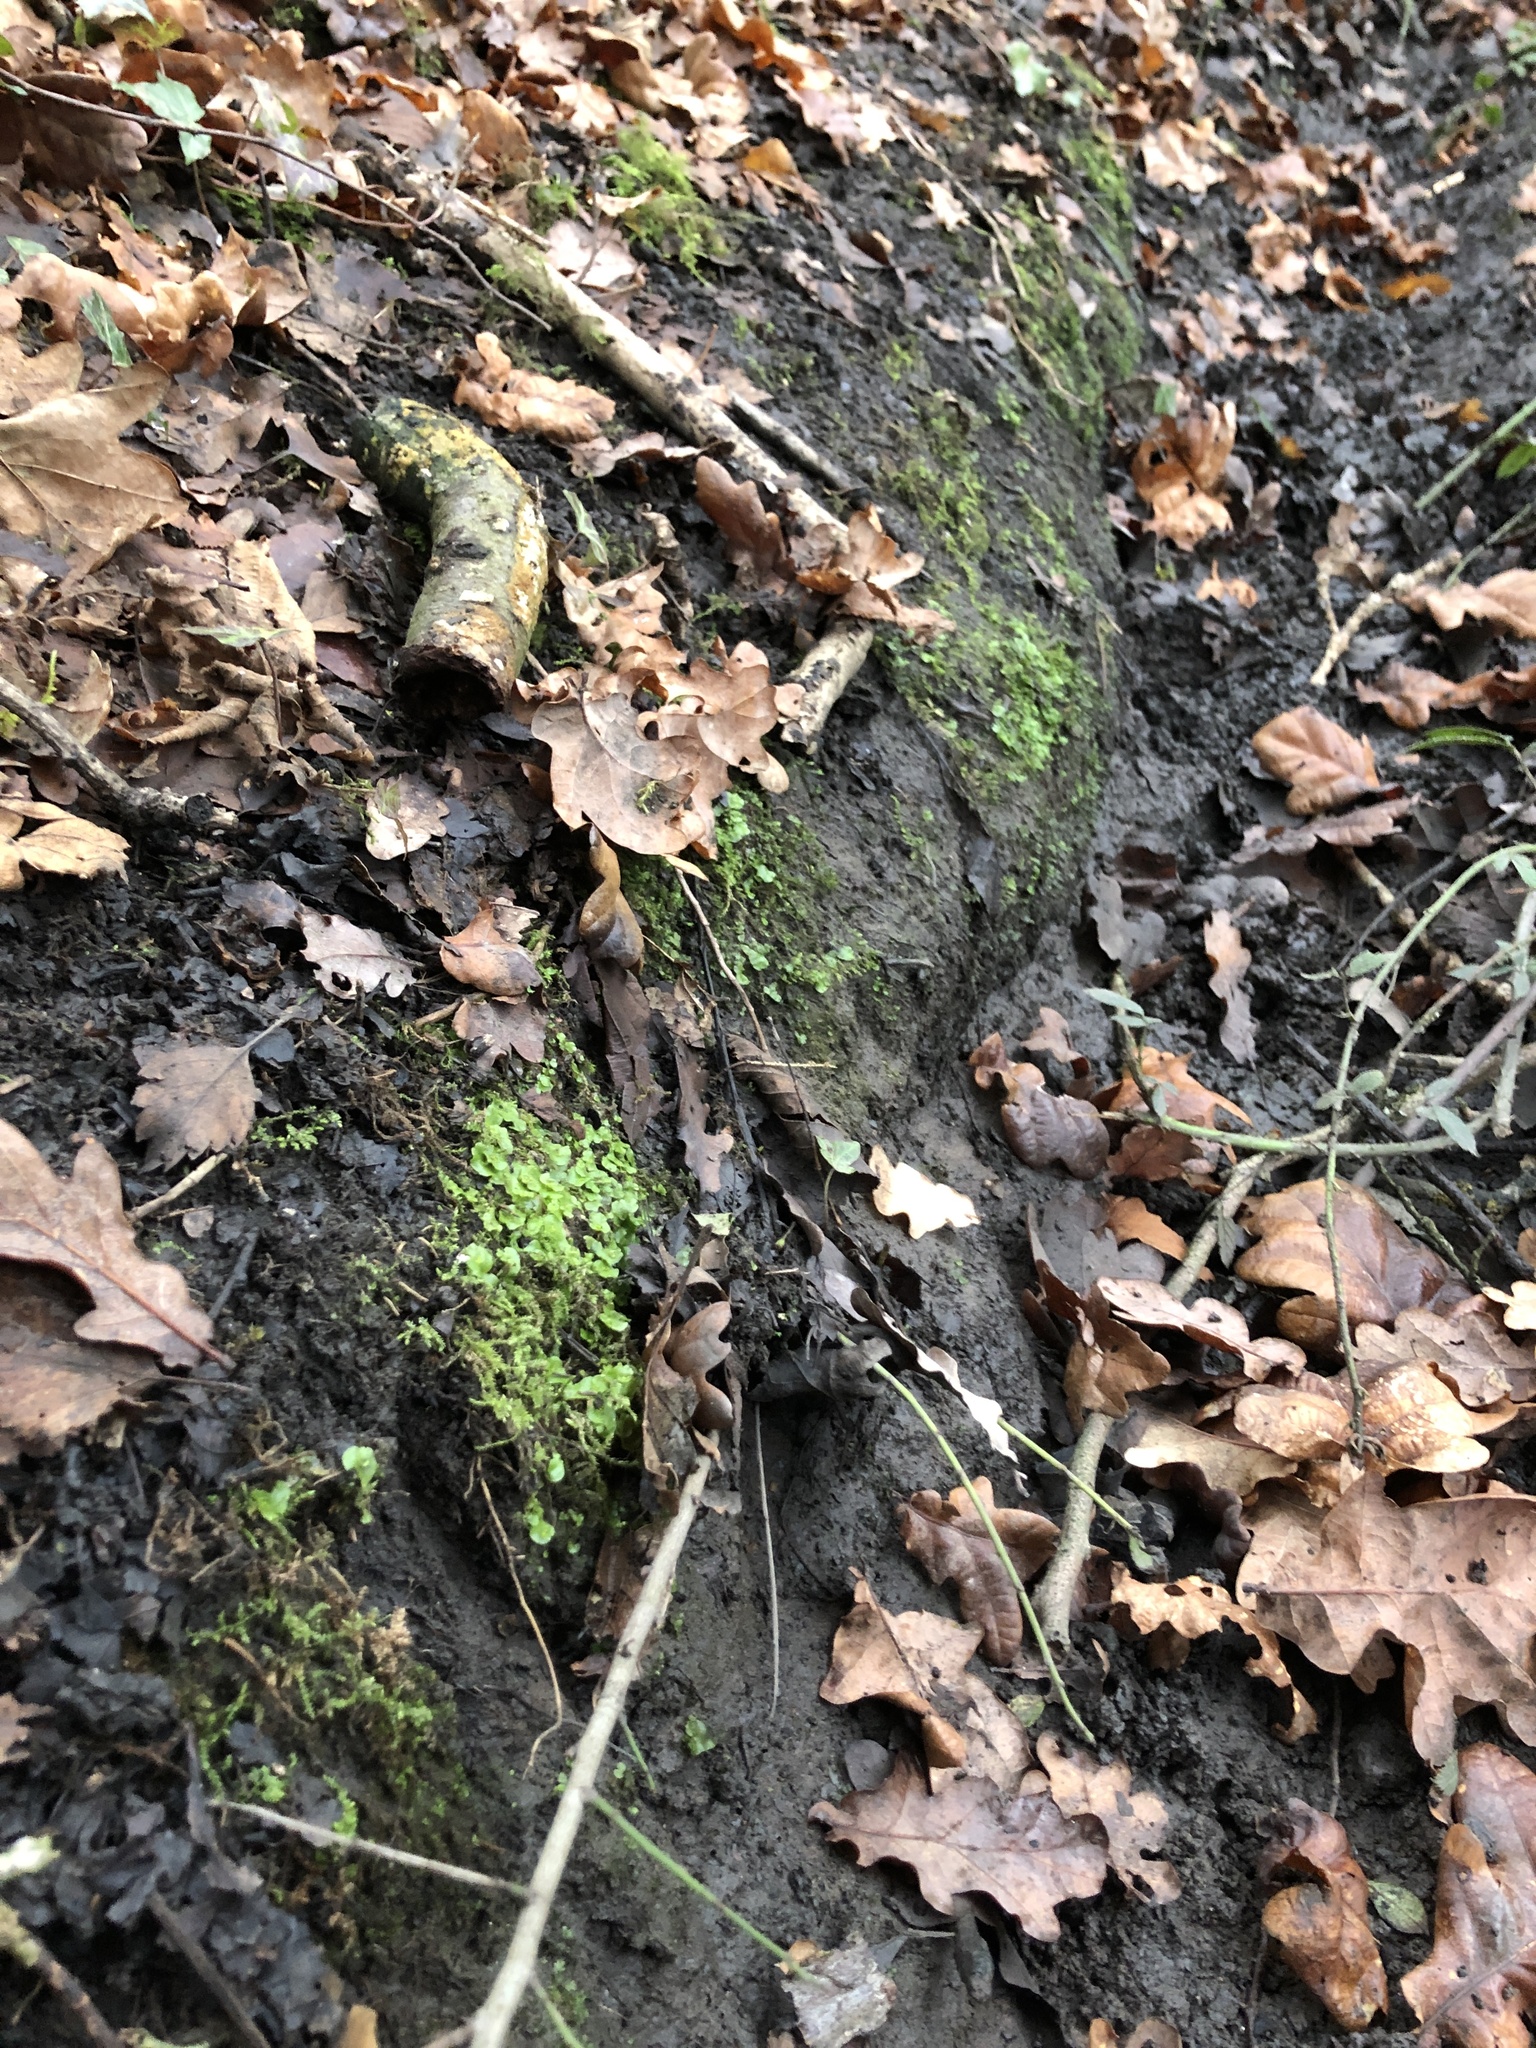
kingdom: Plantae
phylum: Marchantiophyta
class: Marchantiopsida
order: Lunulariales
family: Lunulariaceae
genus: Lunularia
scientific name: Lunularia cruciata
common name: Crescent-cup liverwort
